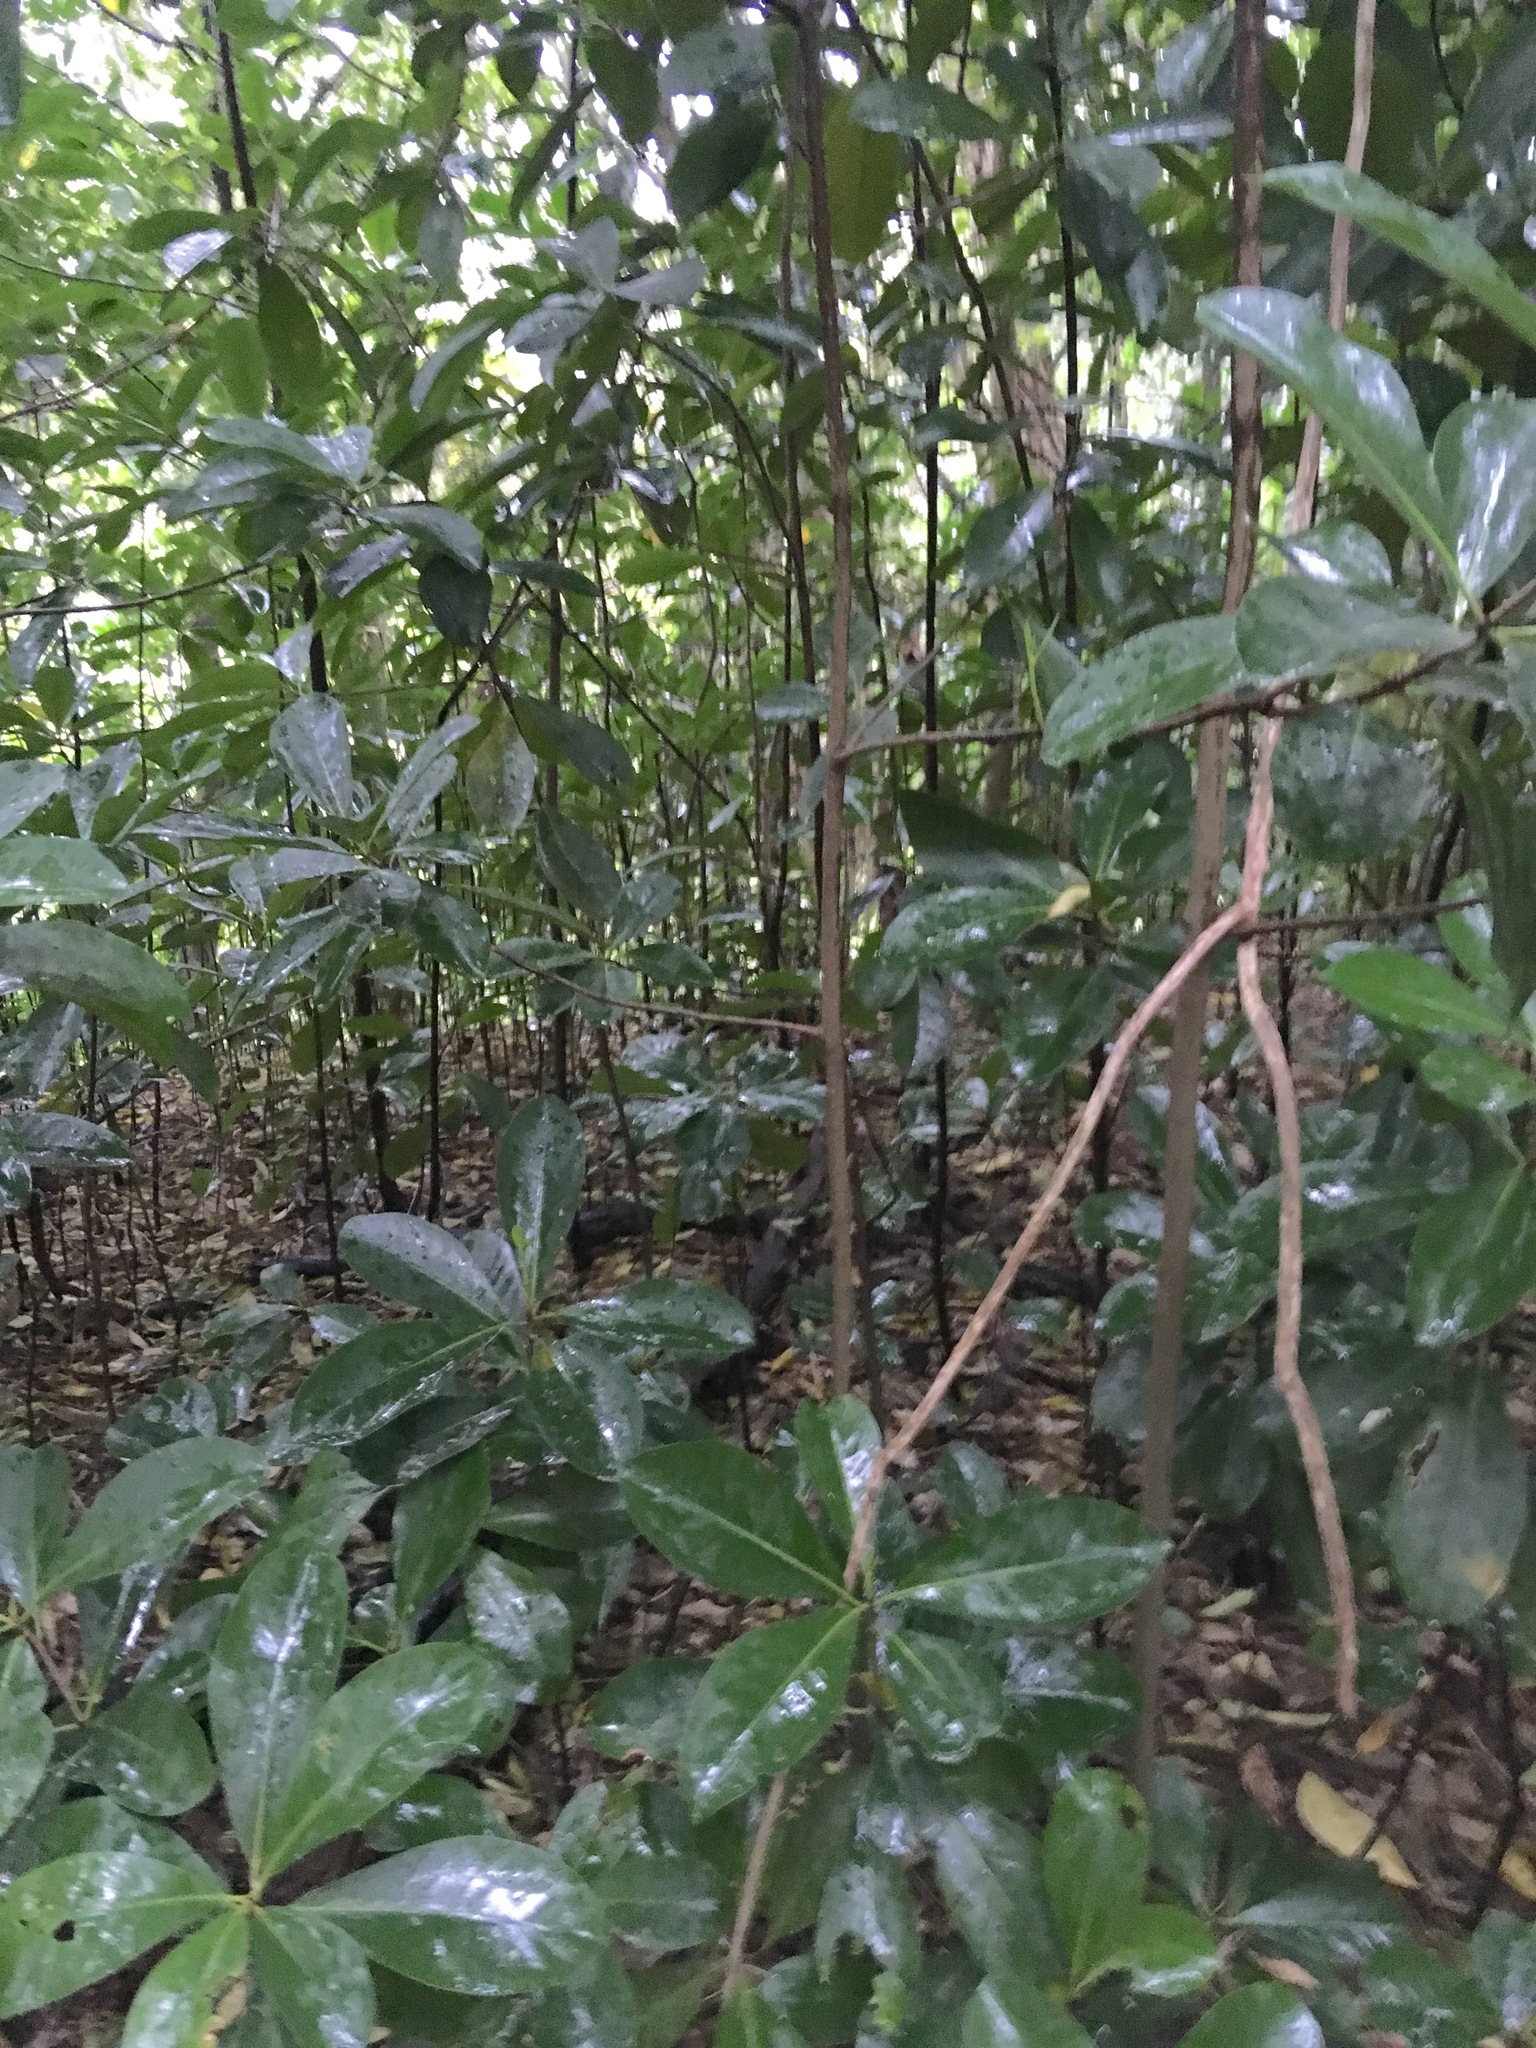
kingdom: Plantae
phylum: Tracheophyta
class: Magnoliopsida
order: Cucurbitales
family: Corynocarpaceae
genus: Corynocarpus
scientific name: Corynocarpus laevigatus
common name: New zealand laurel
